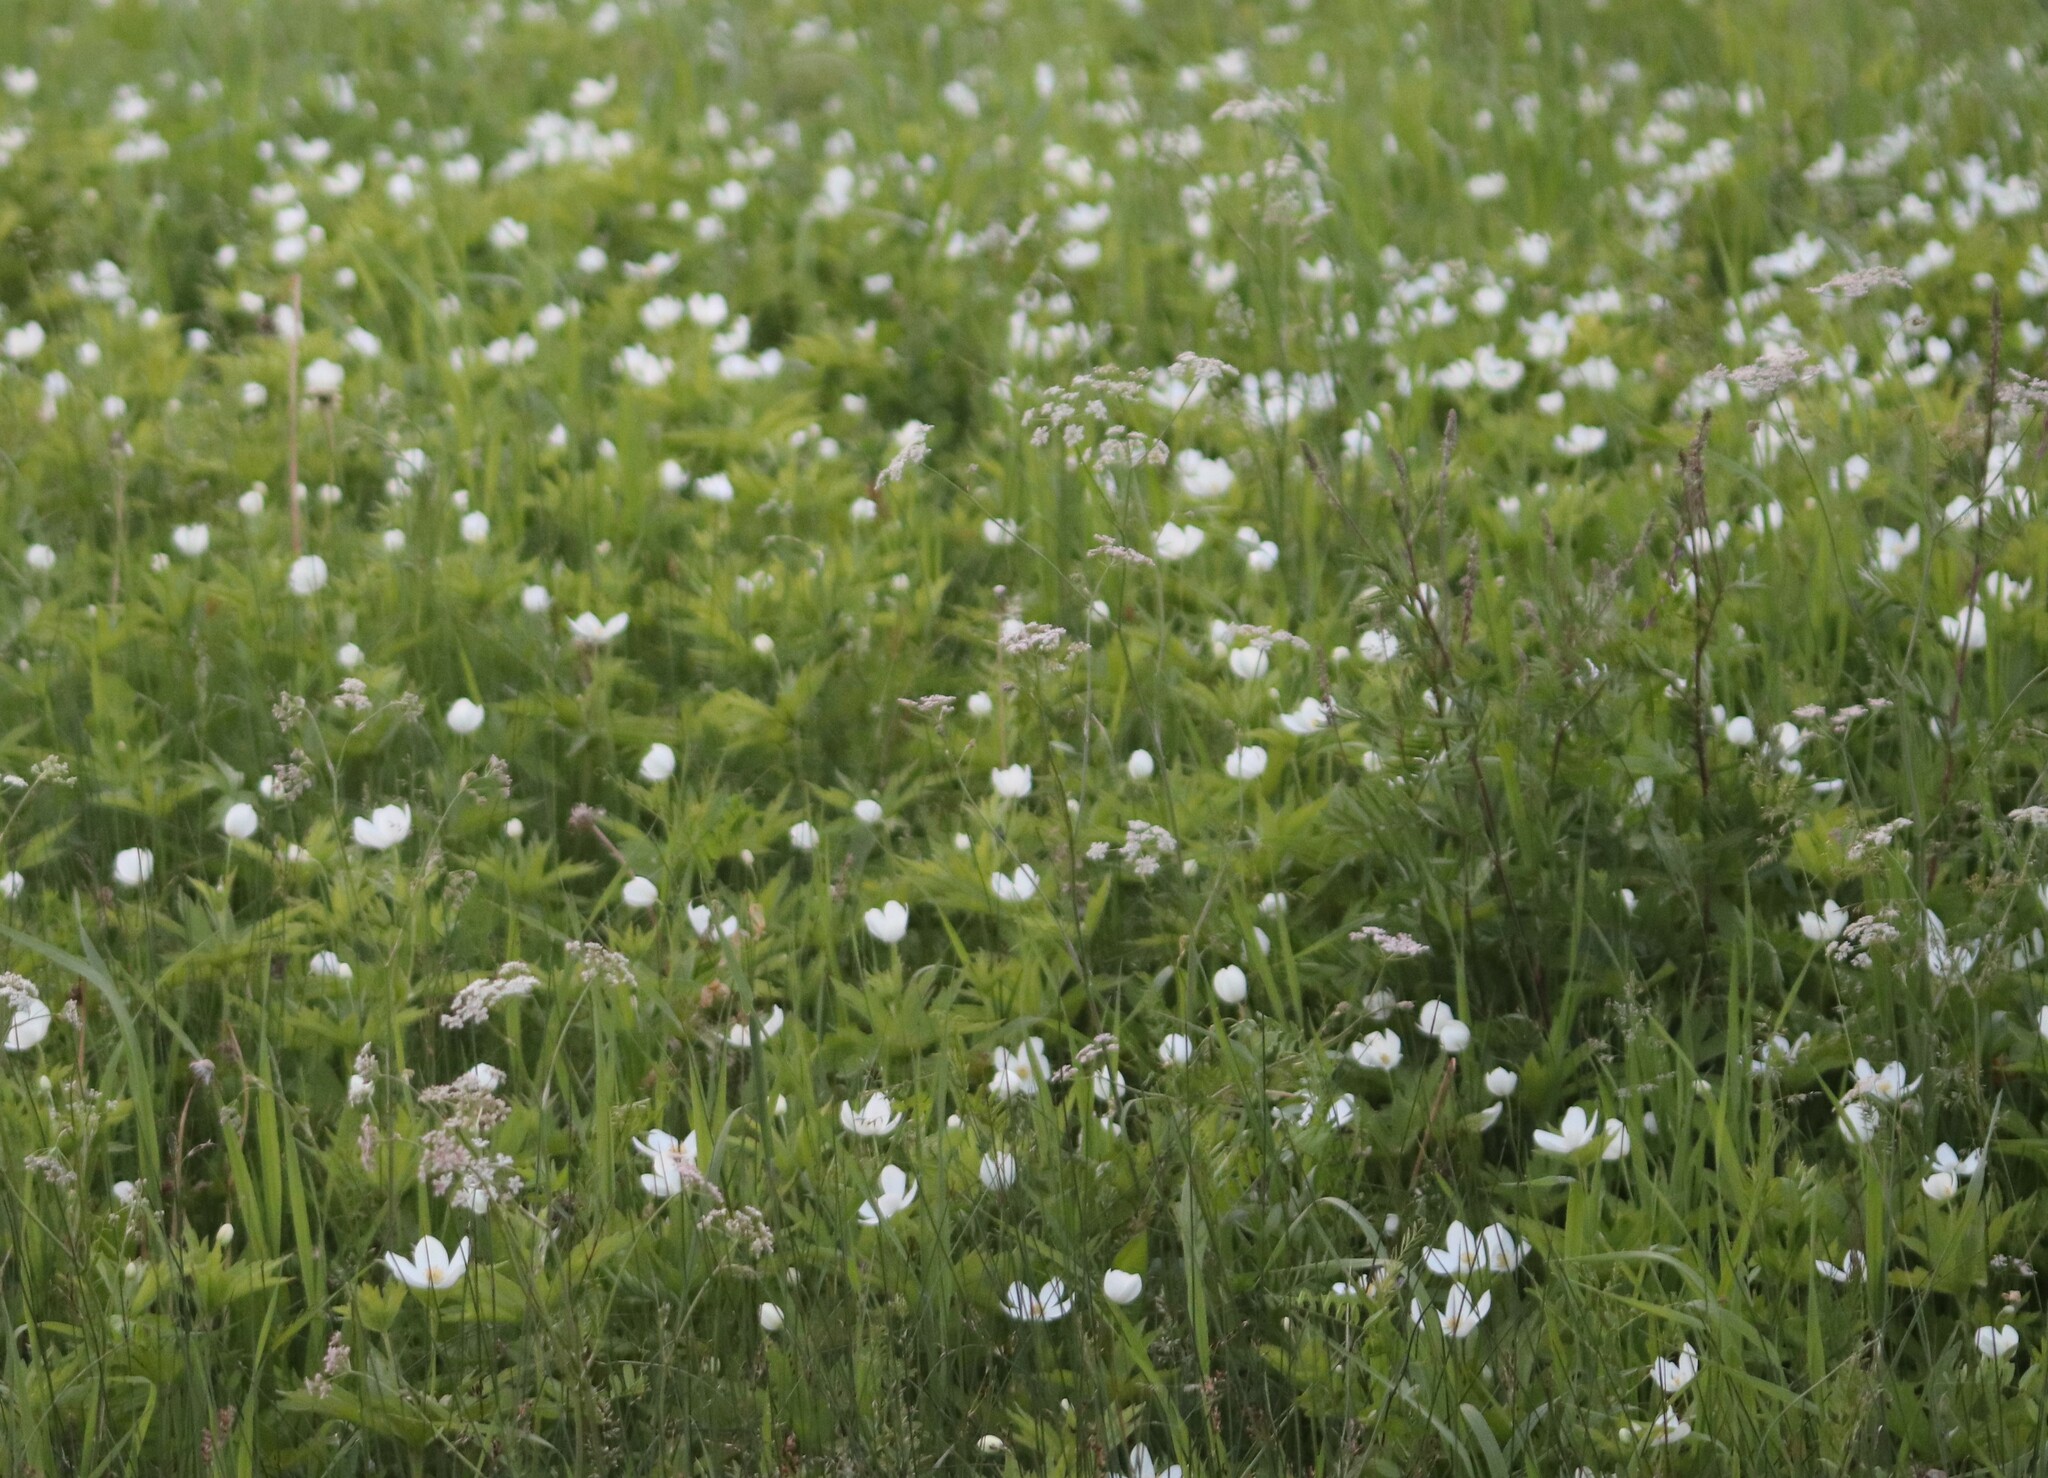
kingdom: Plantae
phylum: Tracheophyta
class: Magnoliopsida
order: Ranunculales
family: Ranunculaceae
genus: Anemonastrum
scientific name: Anemonastrum canadense
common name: Canada anemone
